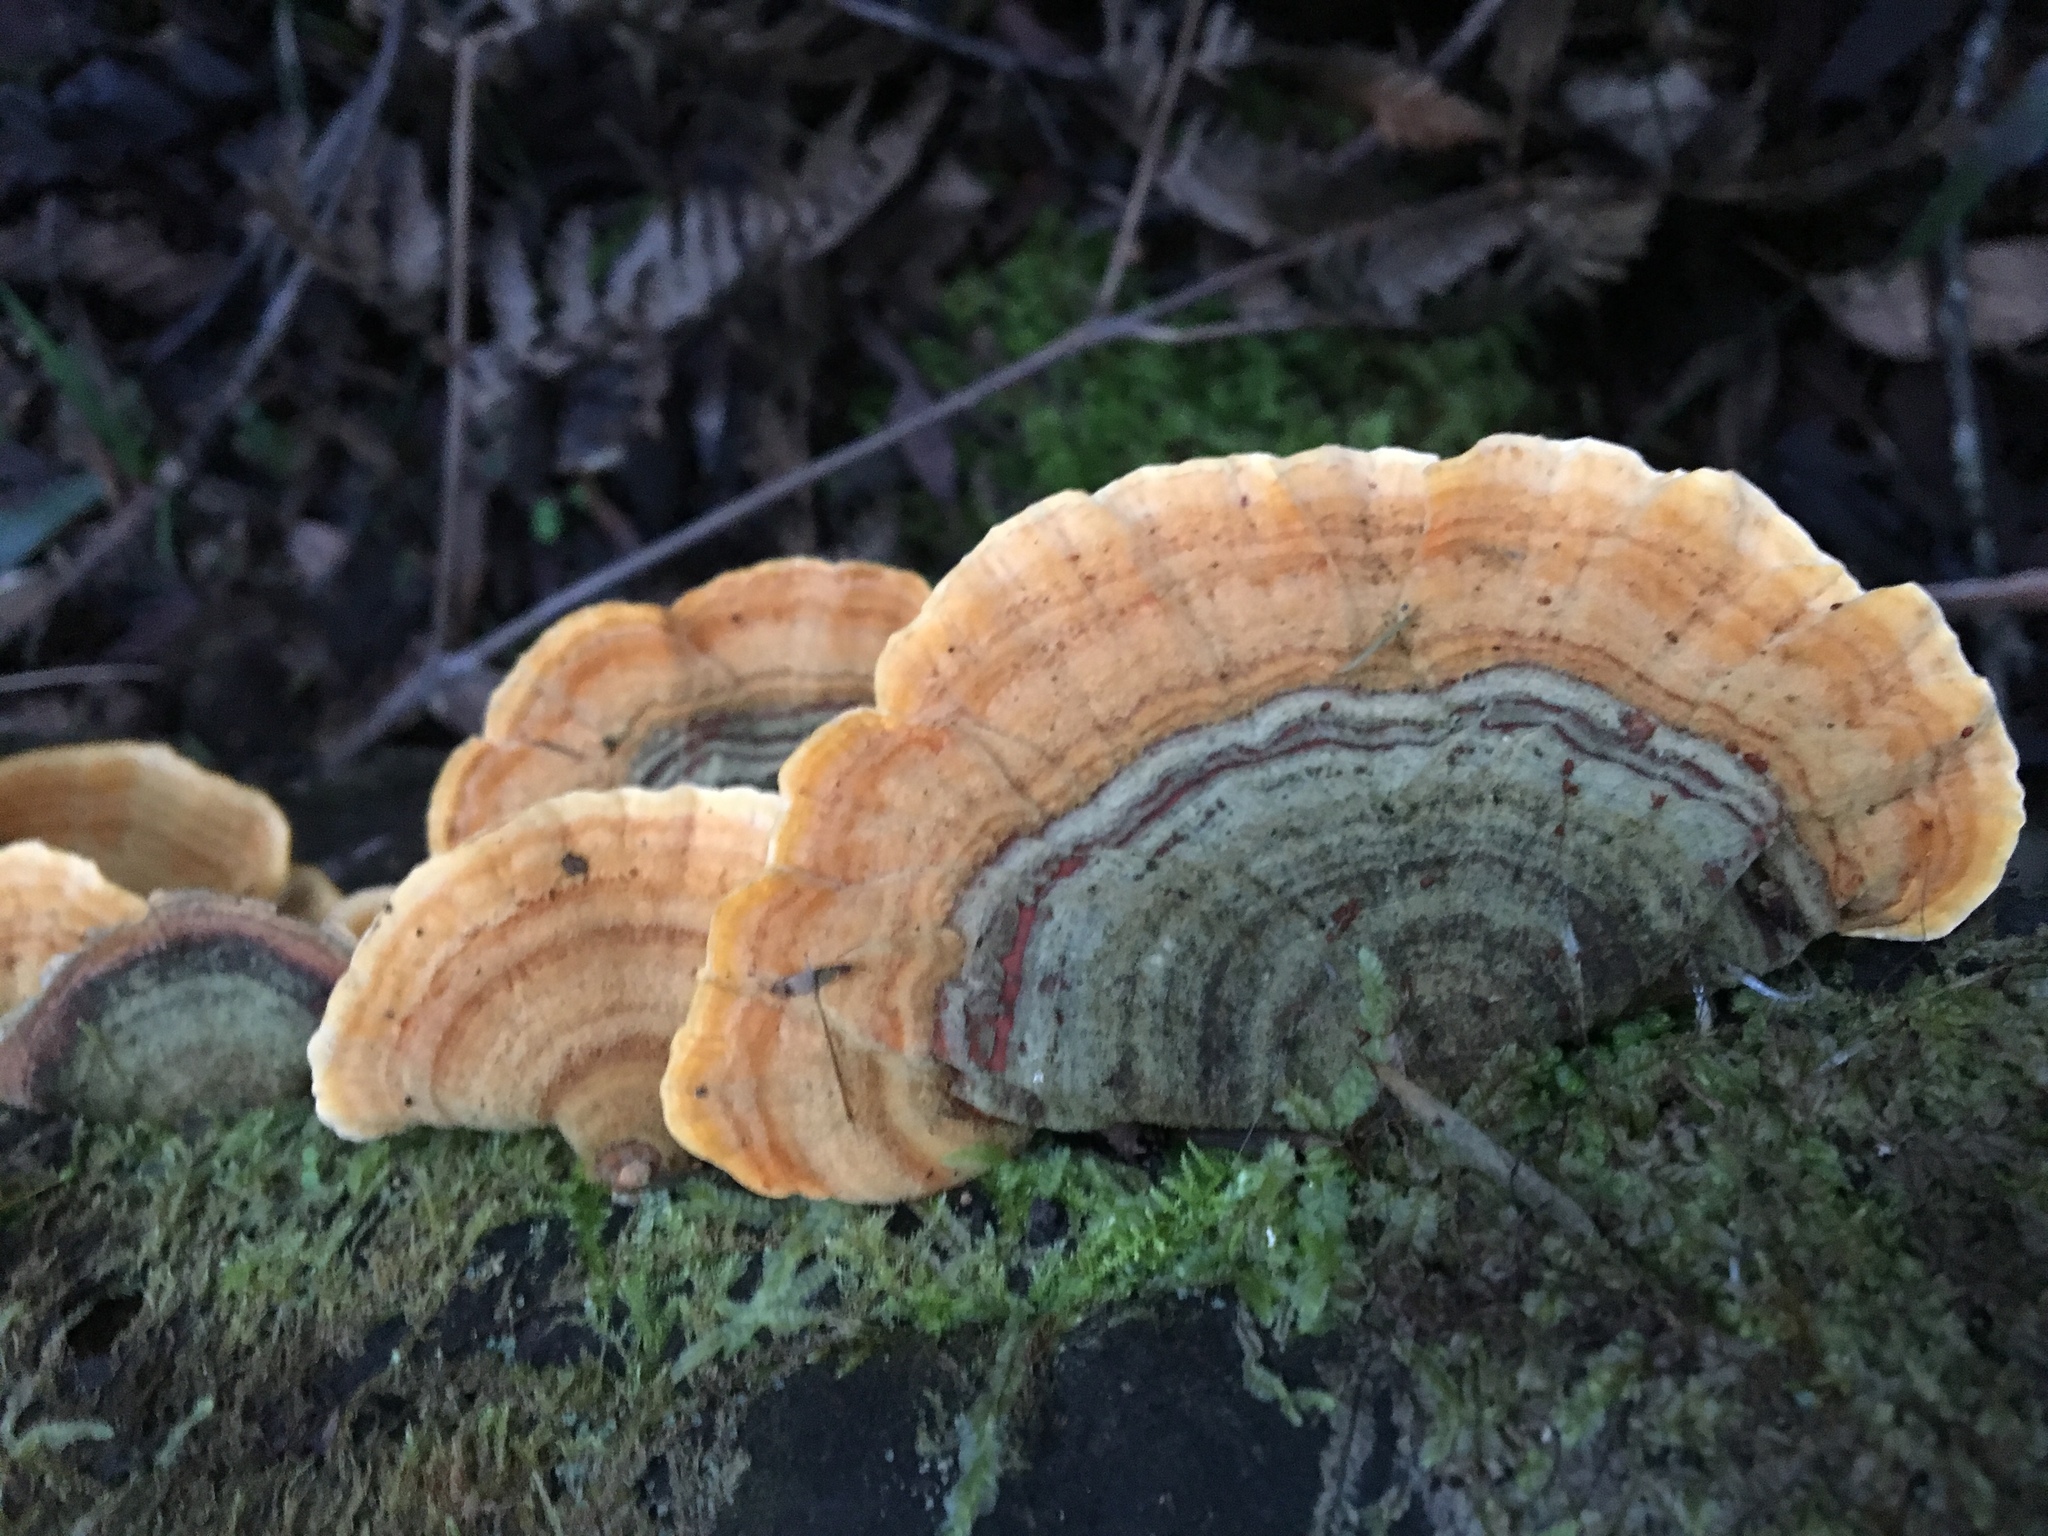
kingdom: Fungi
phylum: Basidiomycota
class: Agaricomycetes
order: Russulales
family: Stereaceae
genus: Stereum
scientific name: Stereum versicolor
